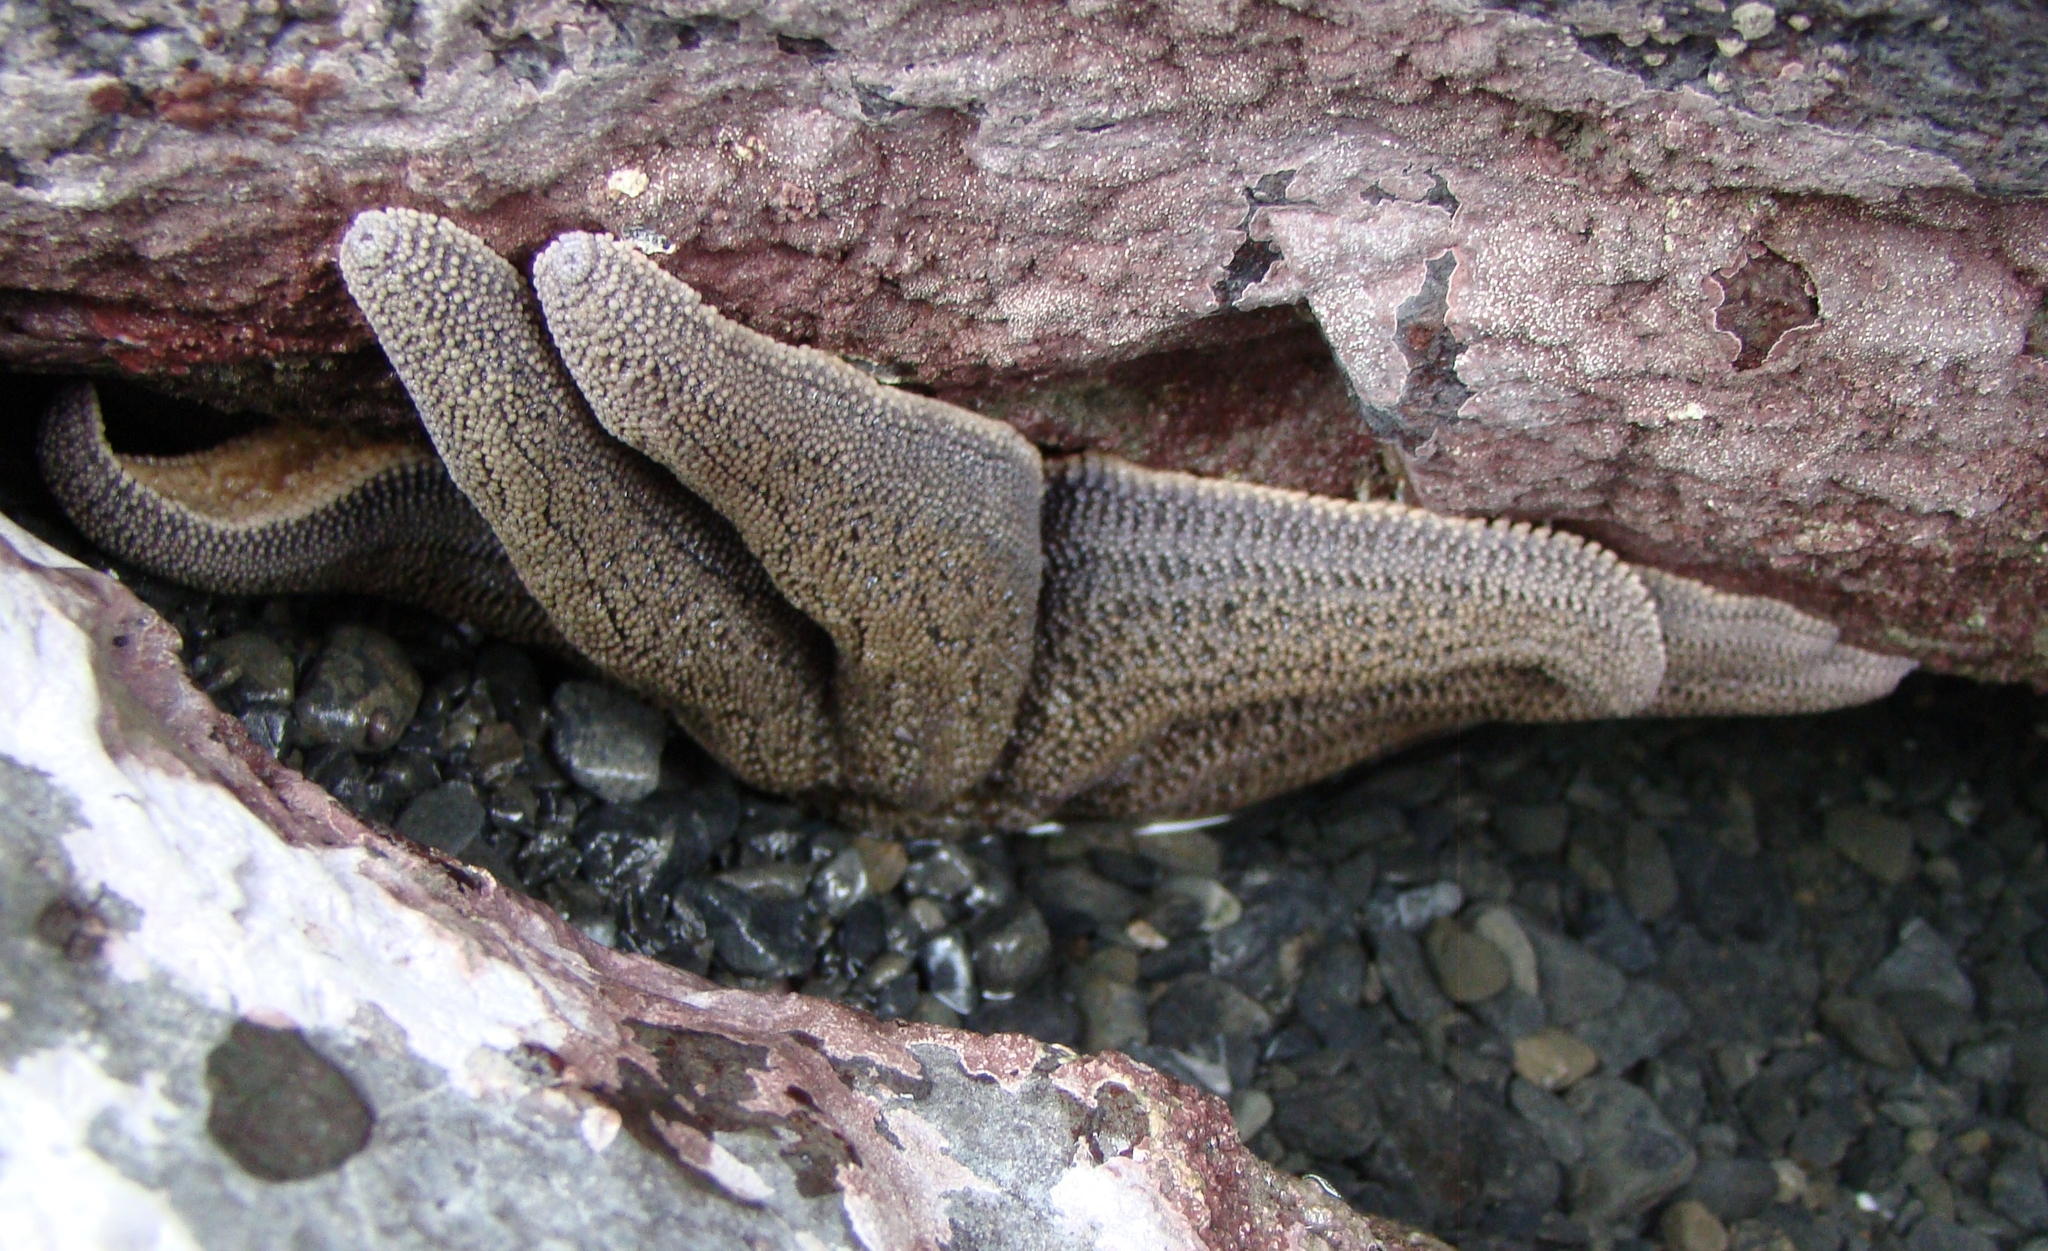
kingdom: Animalia
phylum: Echinodermata
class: Asteroidea
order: Forcipulatida
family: Stichasteridae
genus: Stichaster
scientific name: Stichaster australis
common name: Reef starfish
